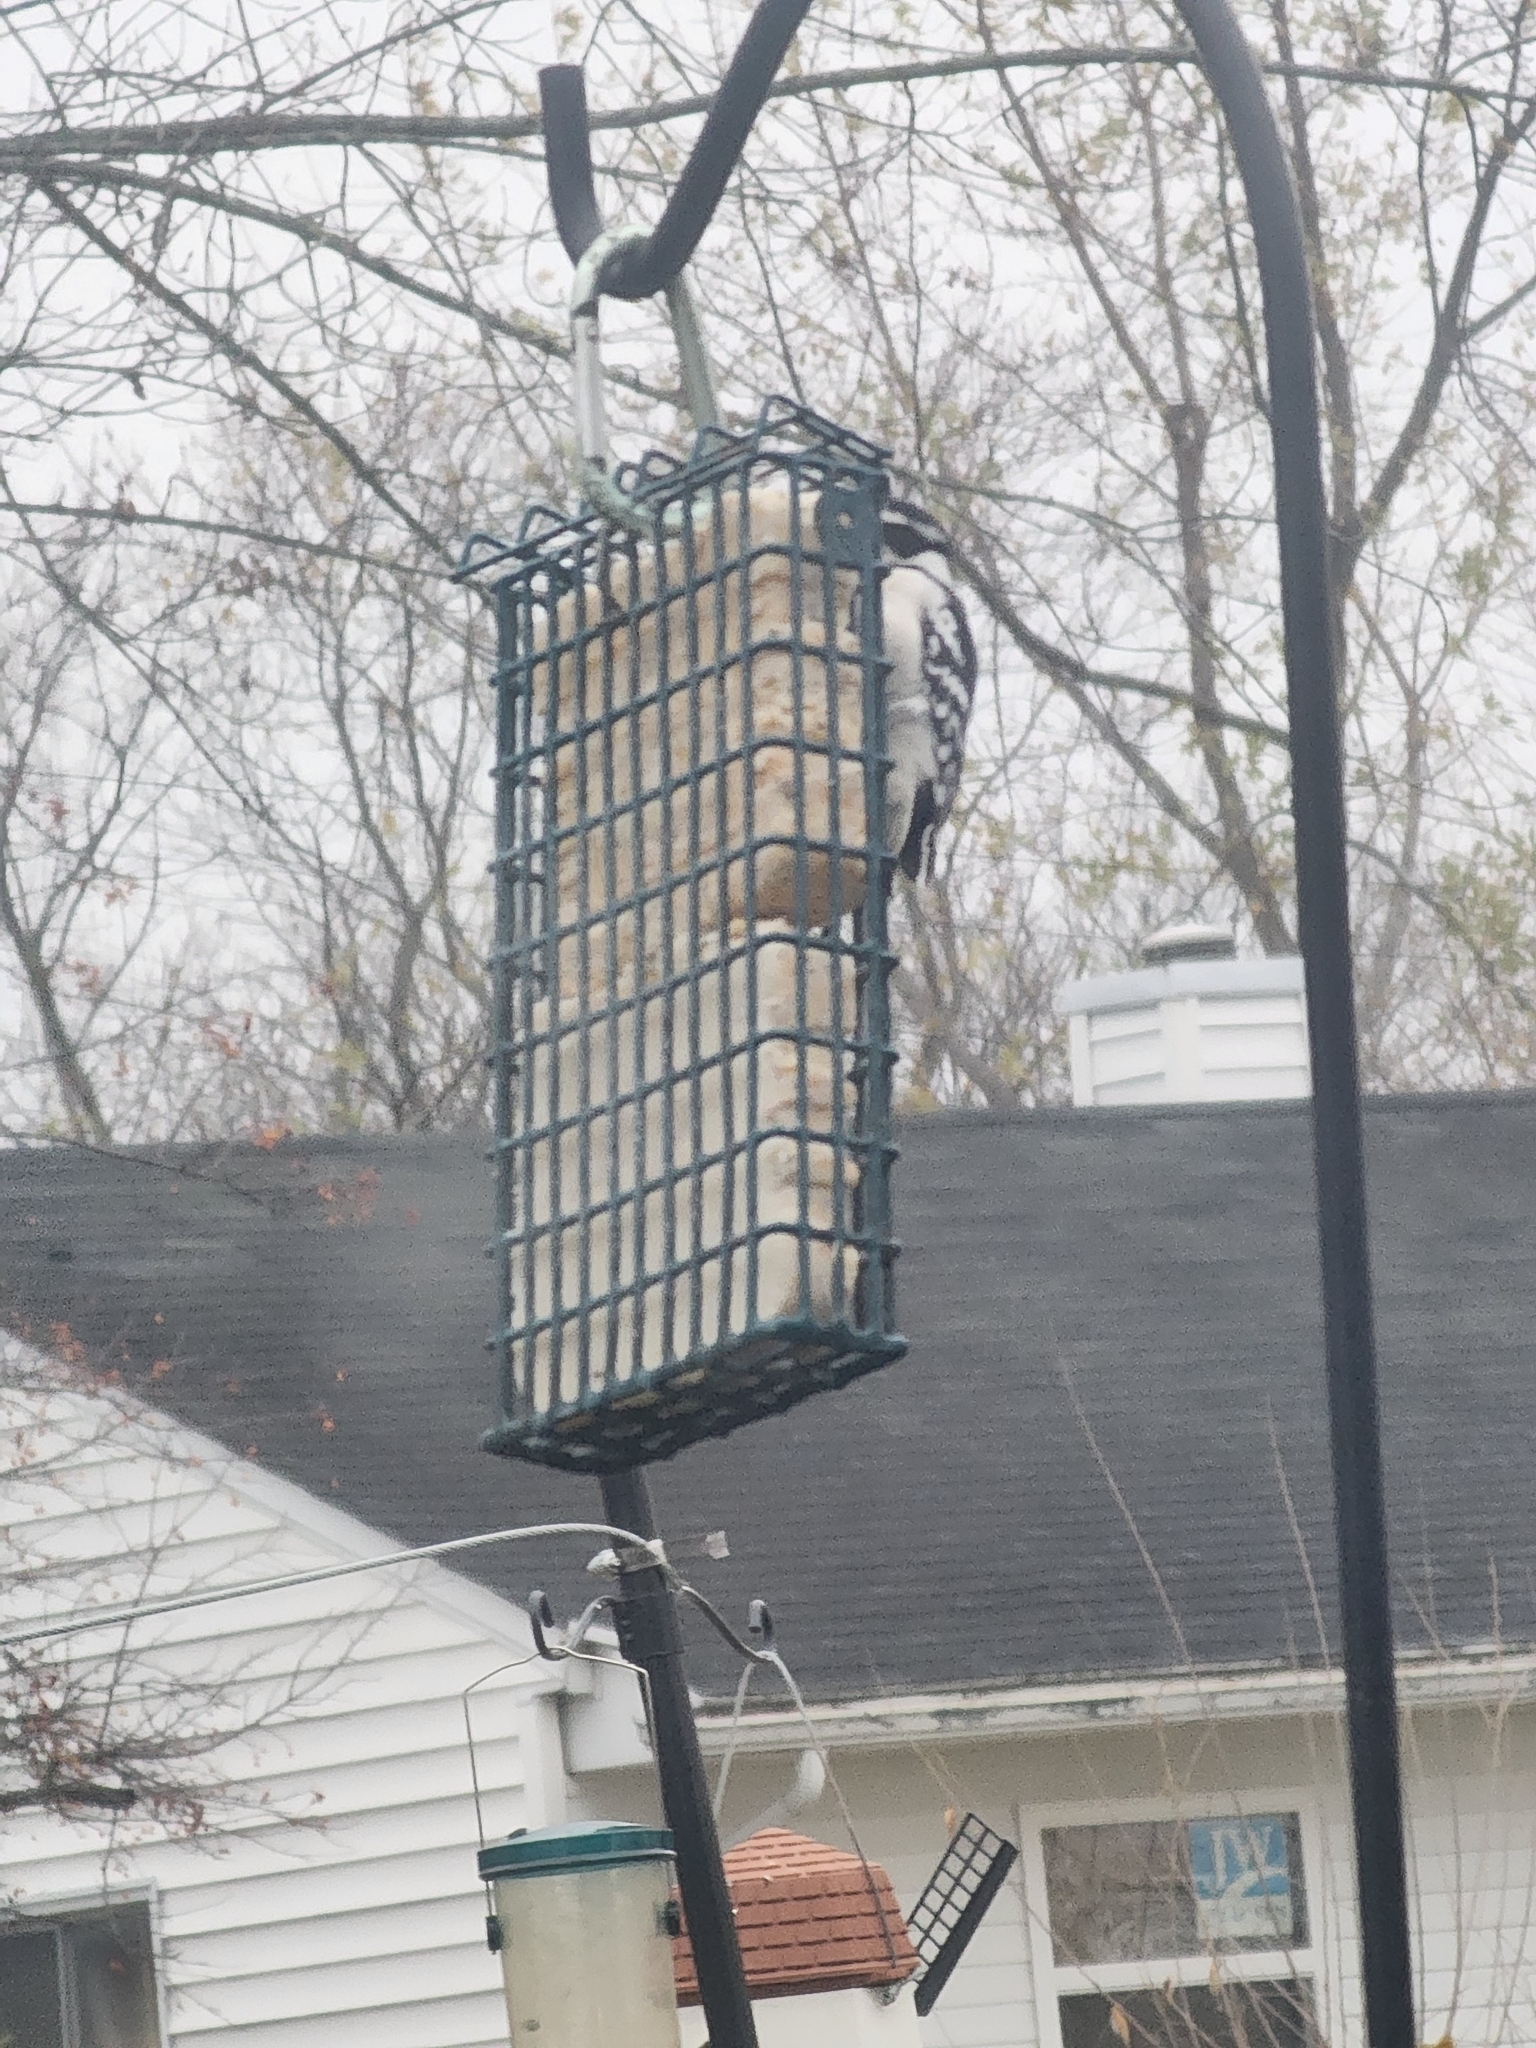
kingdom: Animalia
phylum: Chordata
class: Aves
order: Piciformes
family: Picidae
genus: Dryobates
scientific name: Dryobates pubescens
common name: Downy woodpecker
